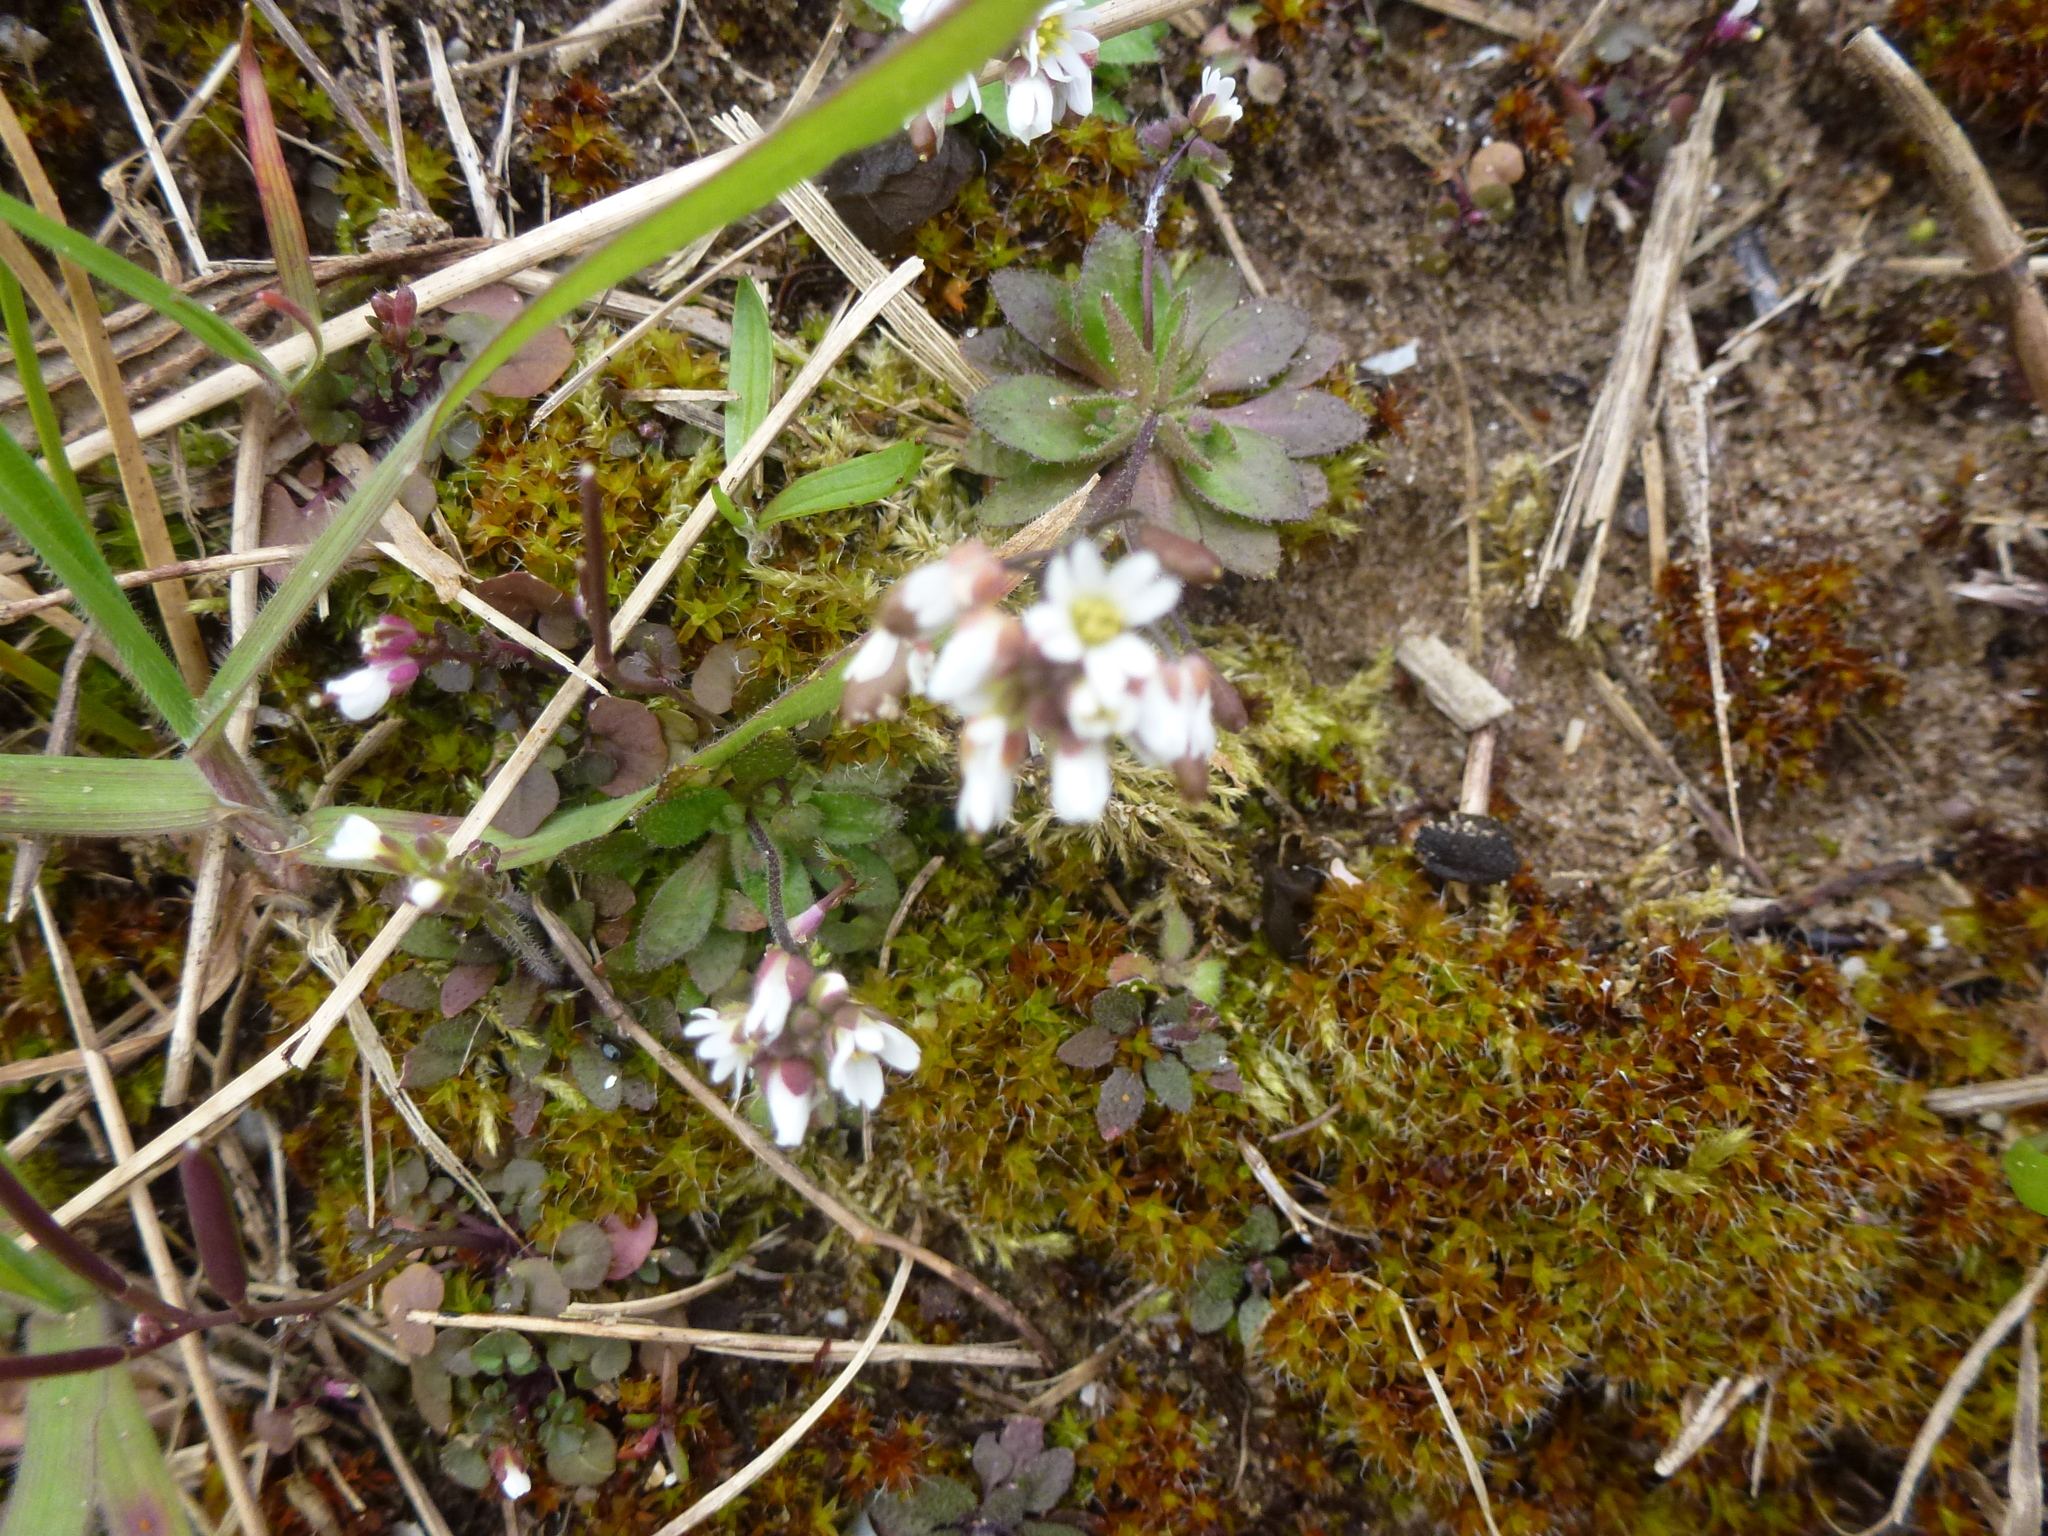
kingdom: Plantae
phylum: Tracheophyta
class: Magnoliopsida
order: Brassicales
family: Brassicaceae
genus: Draba
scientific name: Draba verna
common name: Spring draba
